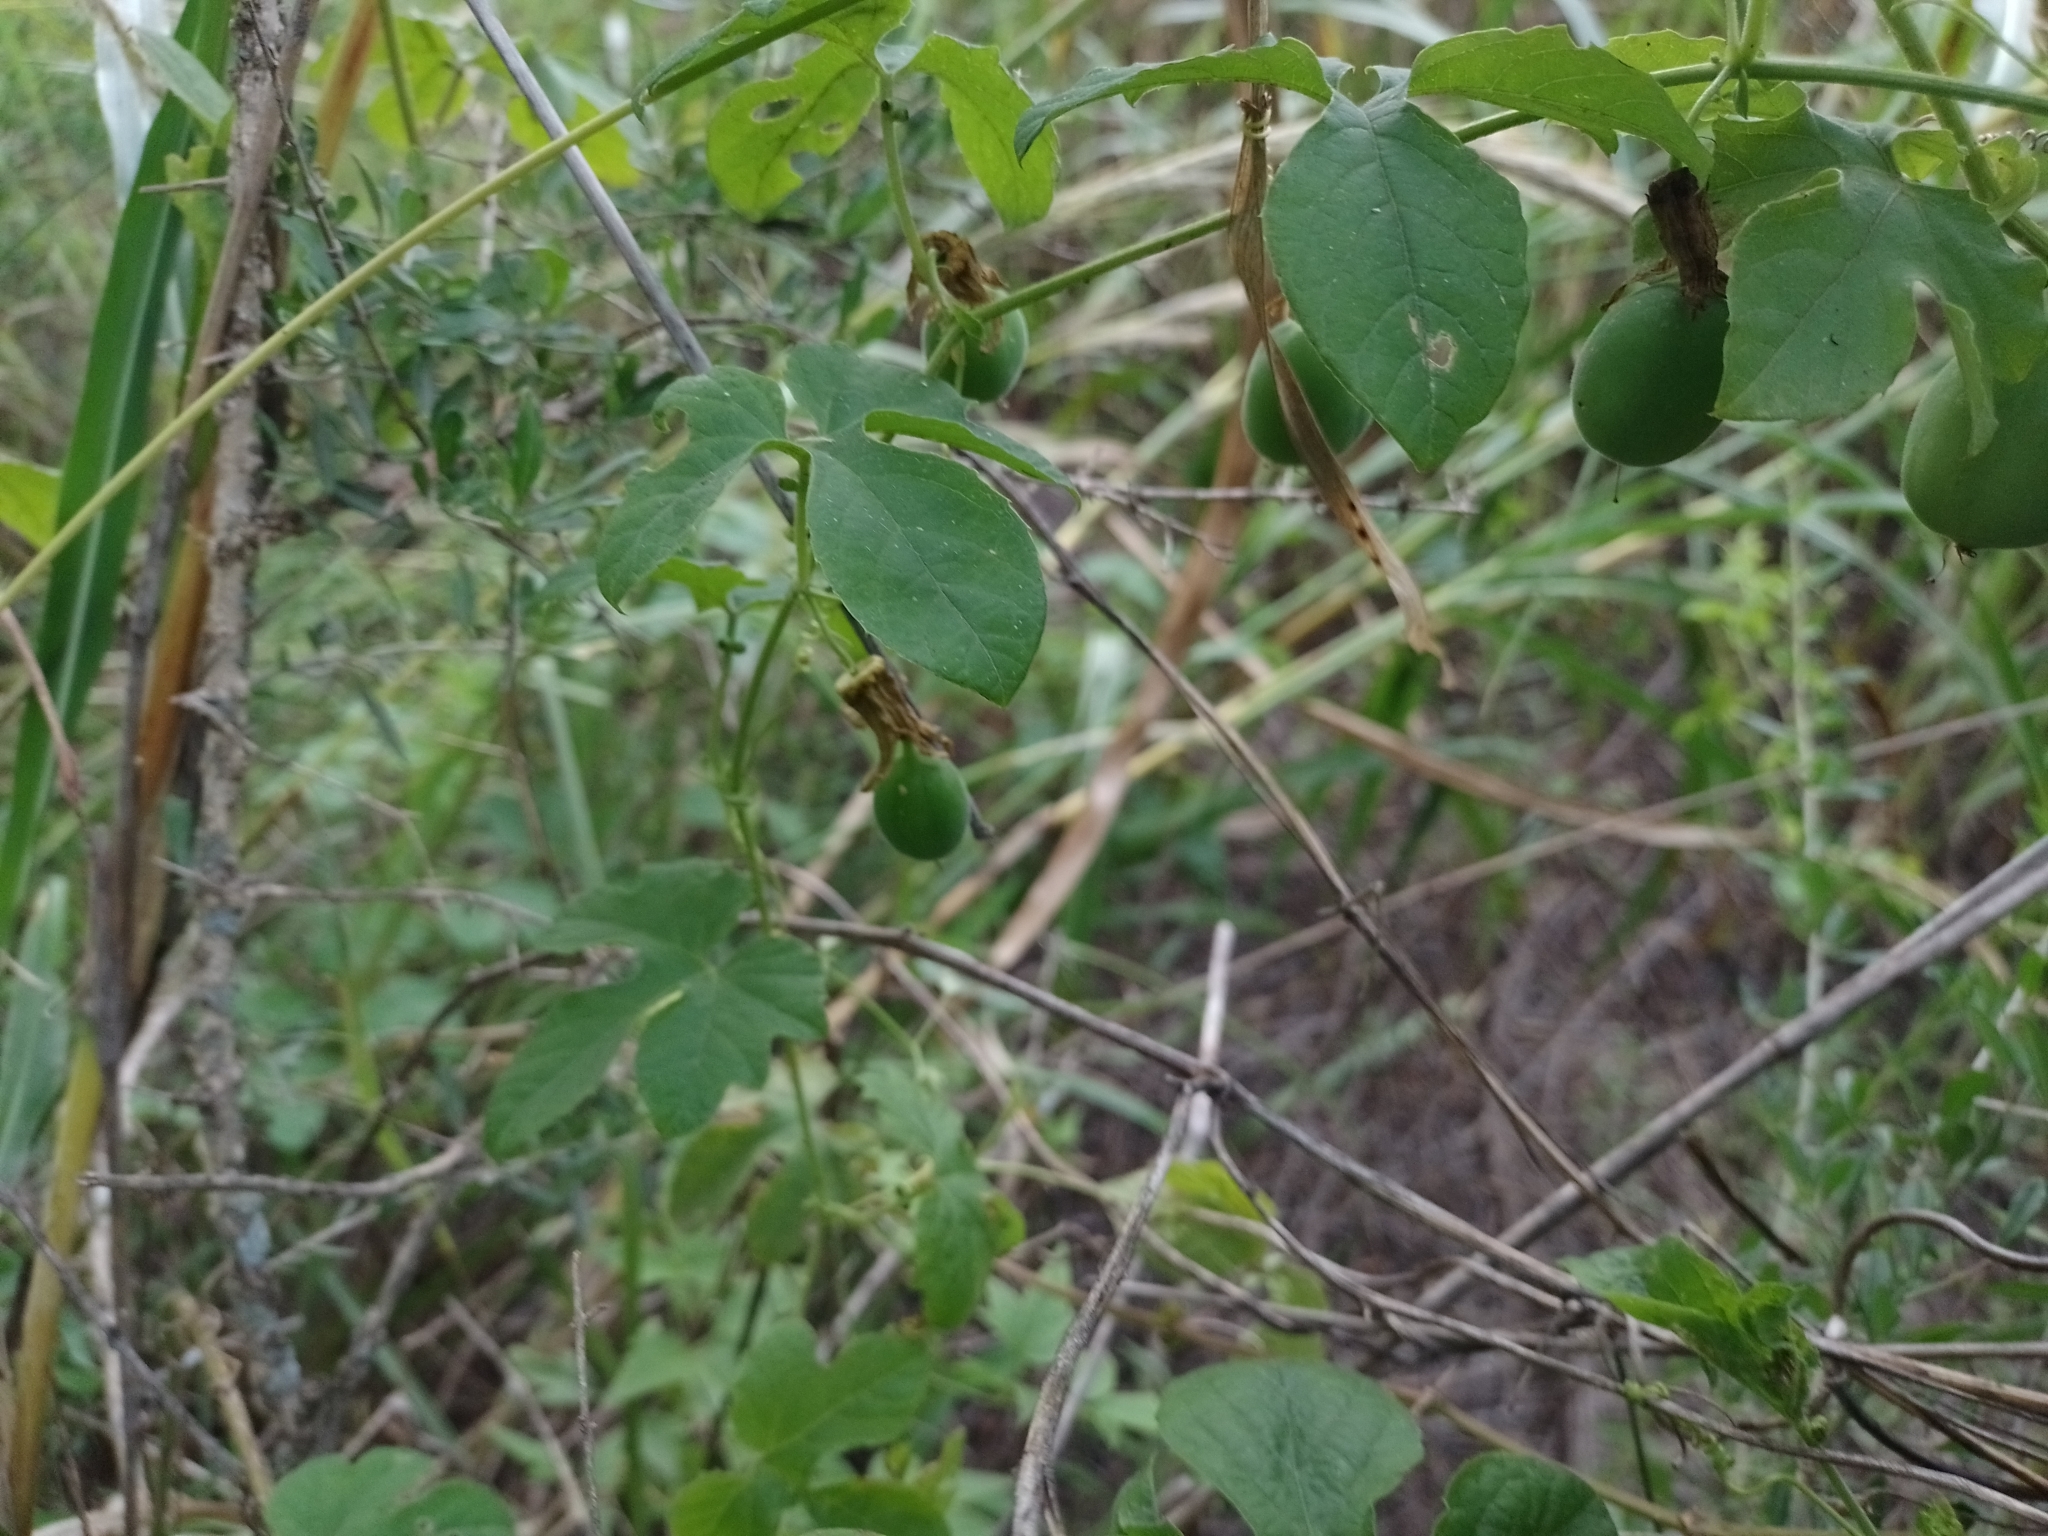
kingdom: Plantae
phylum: Tracheophyta
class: Magnoliopsida
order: Malpighiales
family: Passifloraceae
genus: Passiflora
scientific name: Passiflora morifolia
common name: Woodland passionflower
